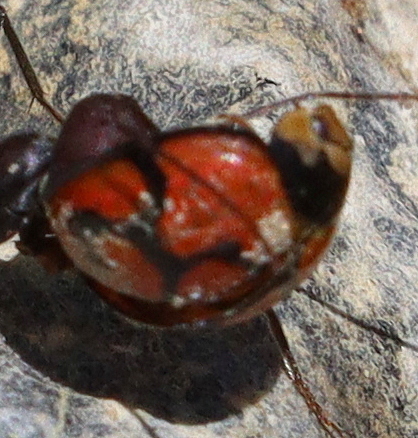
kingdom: Animalia
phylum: Arthropoda
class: Insecta
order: Coleoptera
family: Coccinellidae
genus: Cheilomenes
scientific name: Cheilomenes lunata
